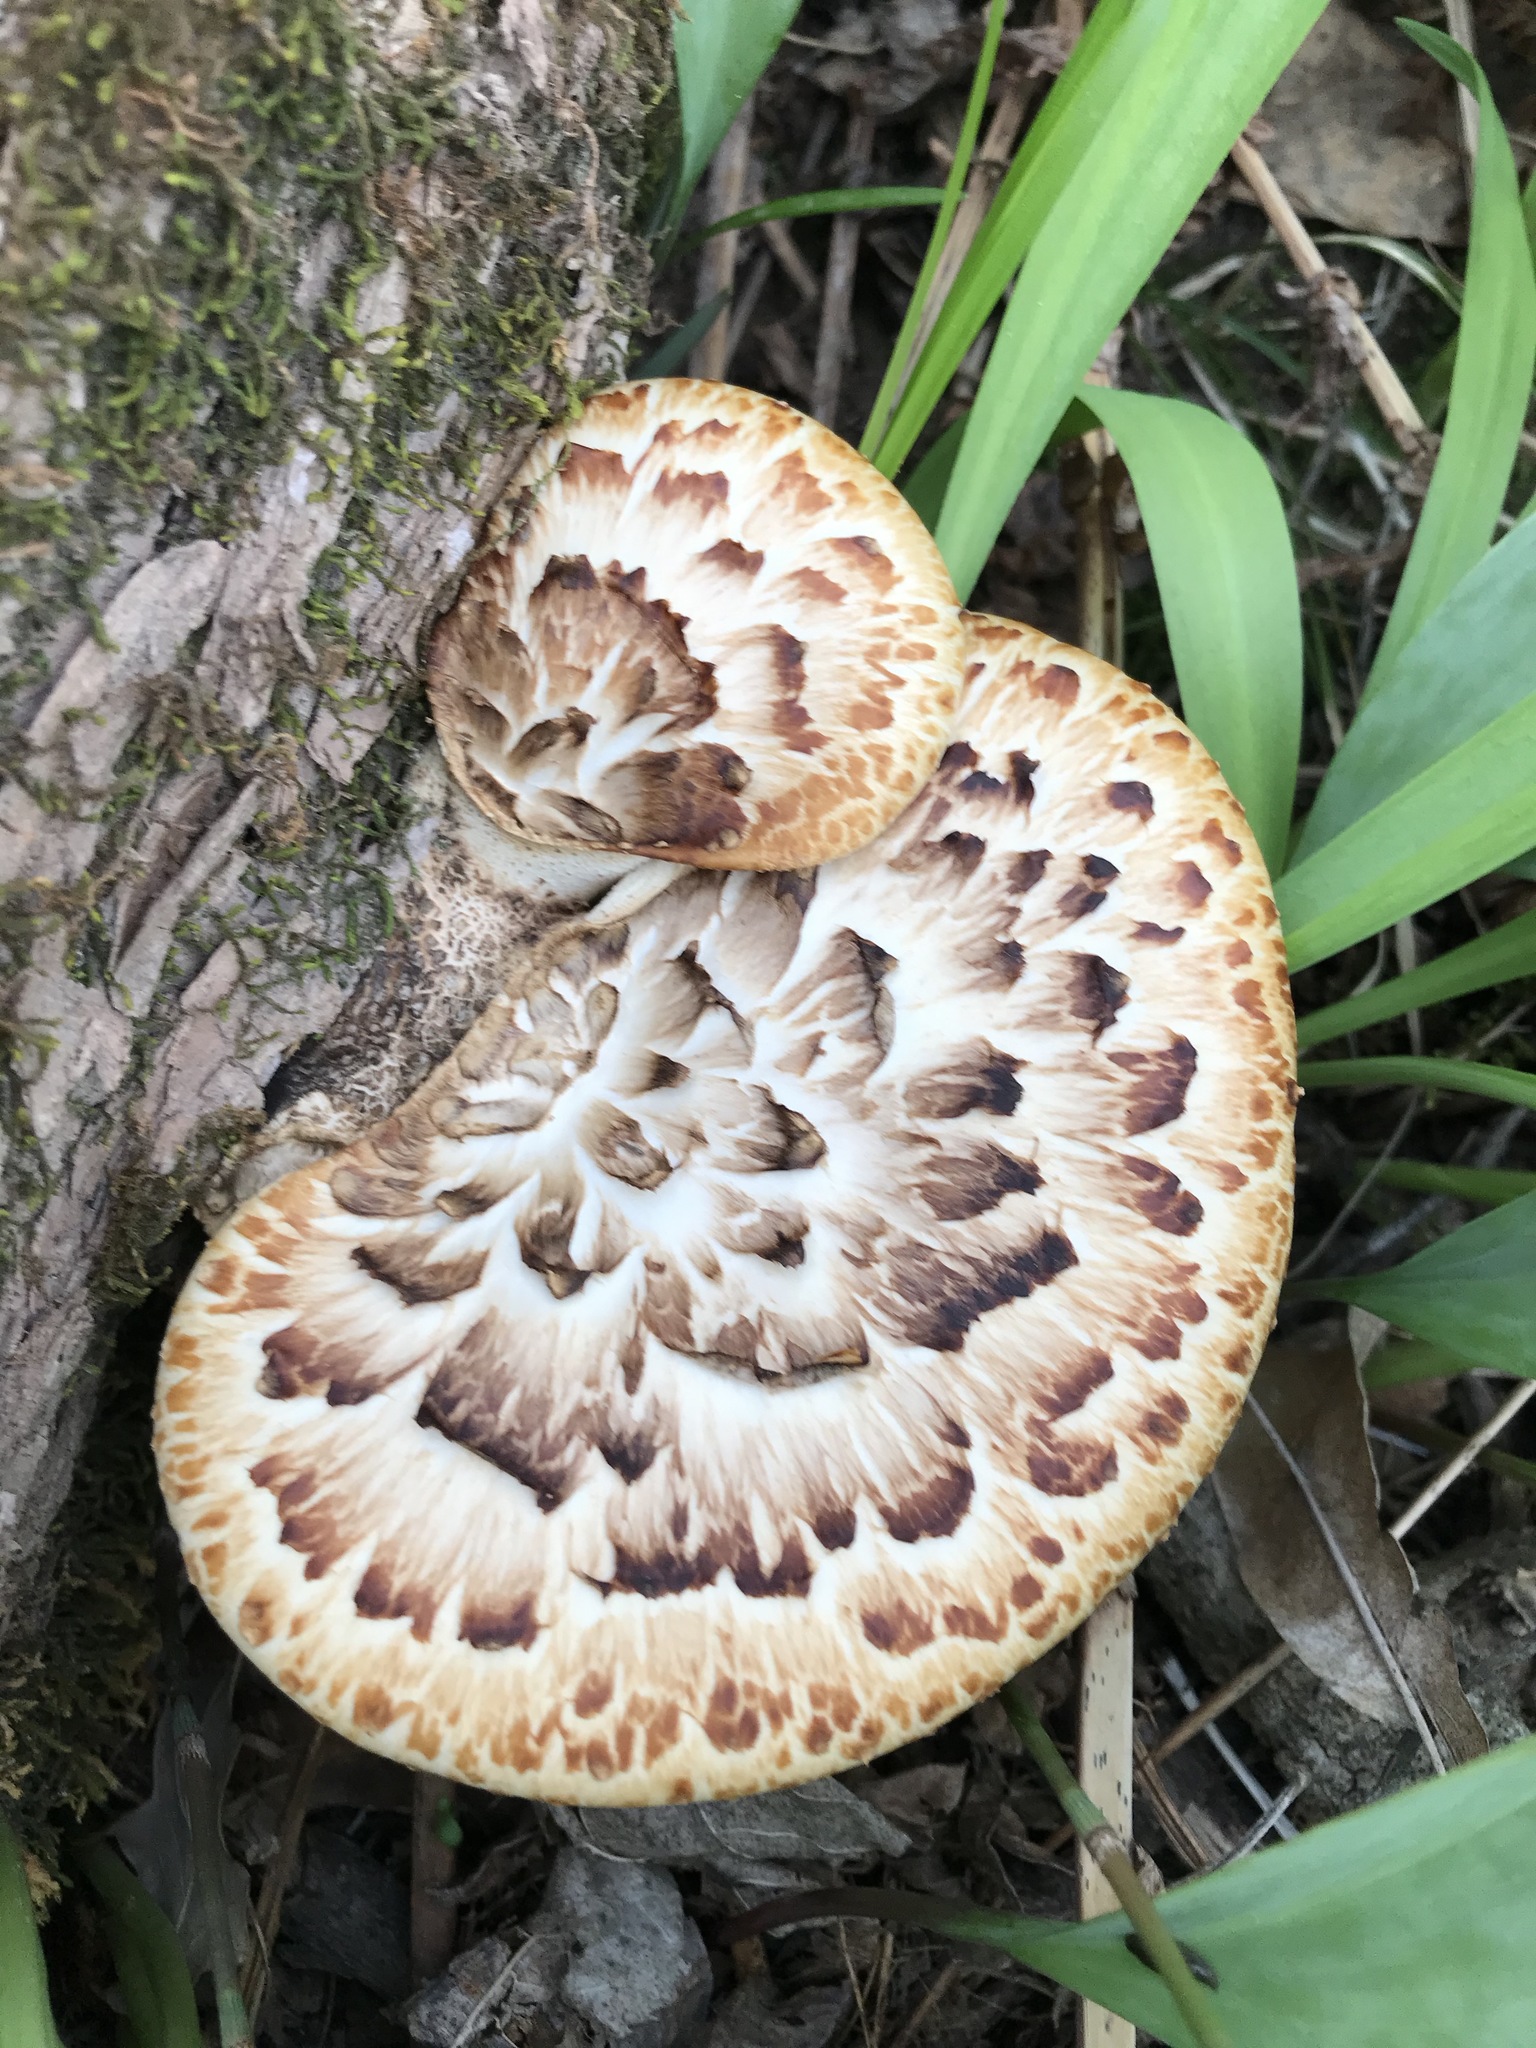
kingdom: Fungi
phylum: Basidiomycota
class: Agaricomycetes
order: Polyporales
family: Polyporaceae
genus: Cerioporus
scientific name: Cerioporus squamosus
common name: Dryad's saddle
